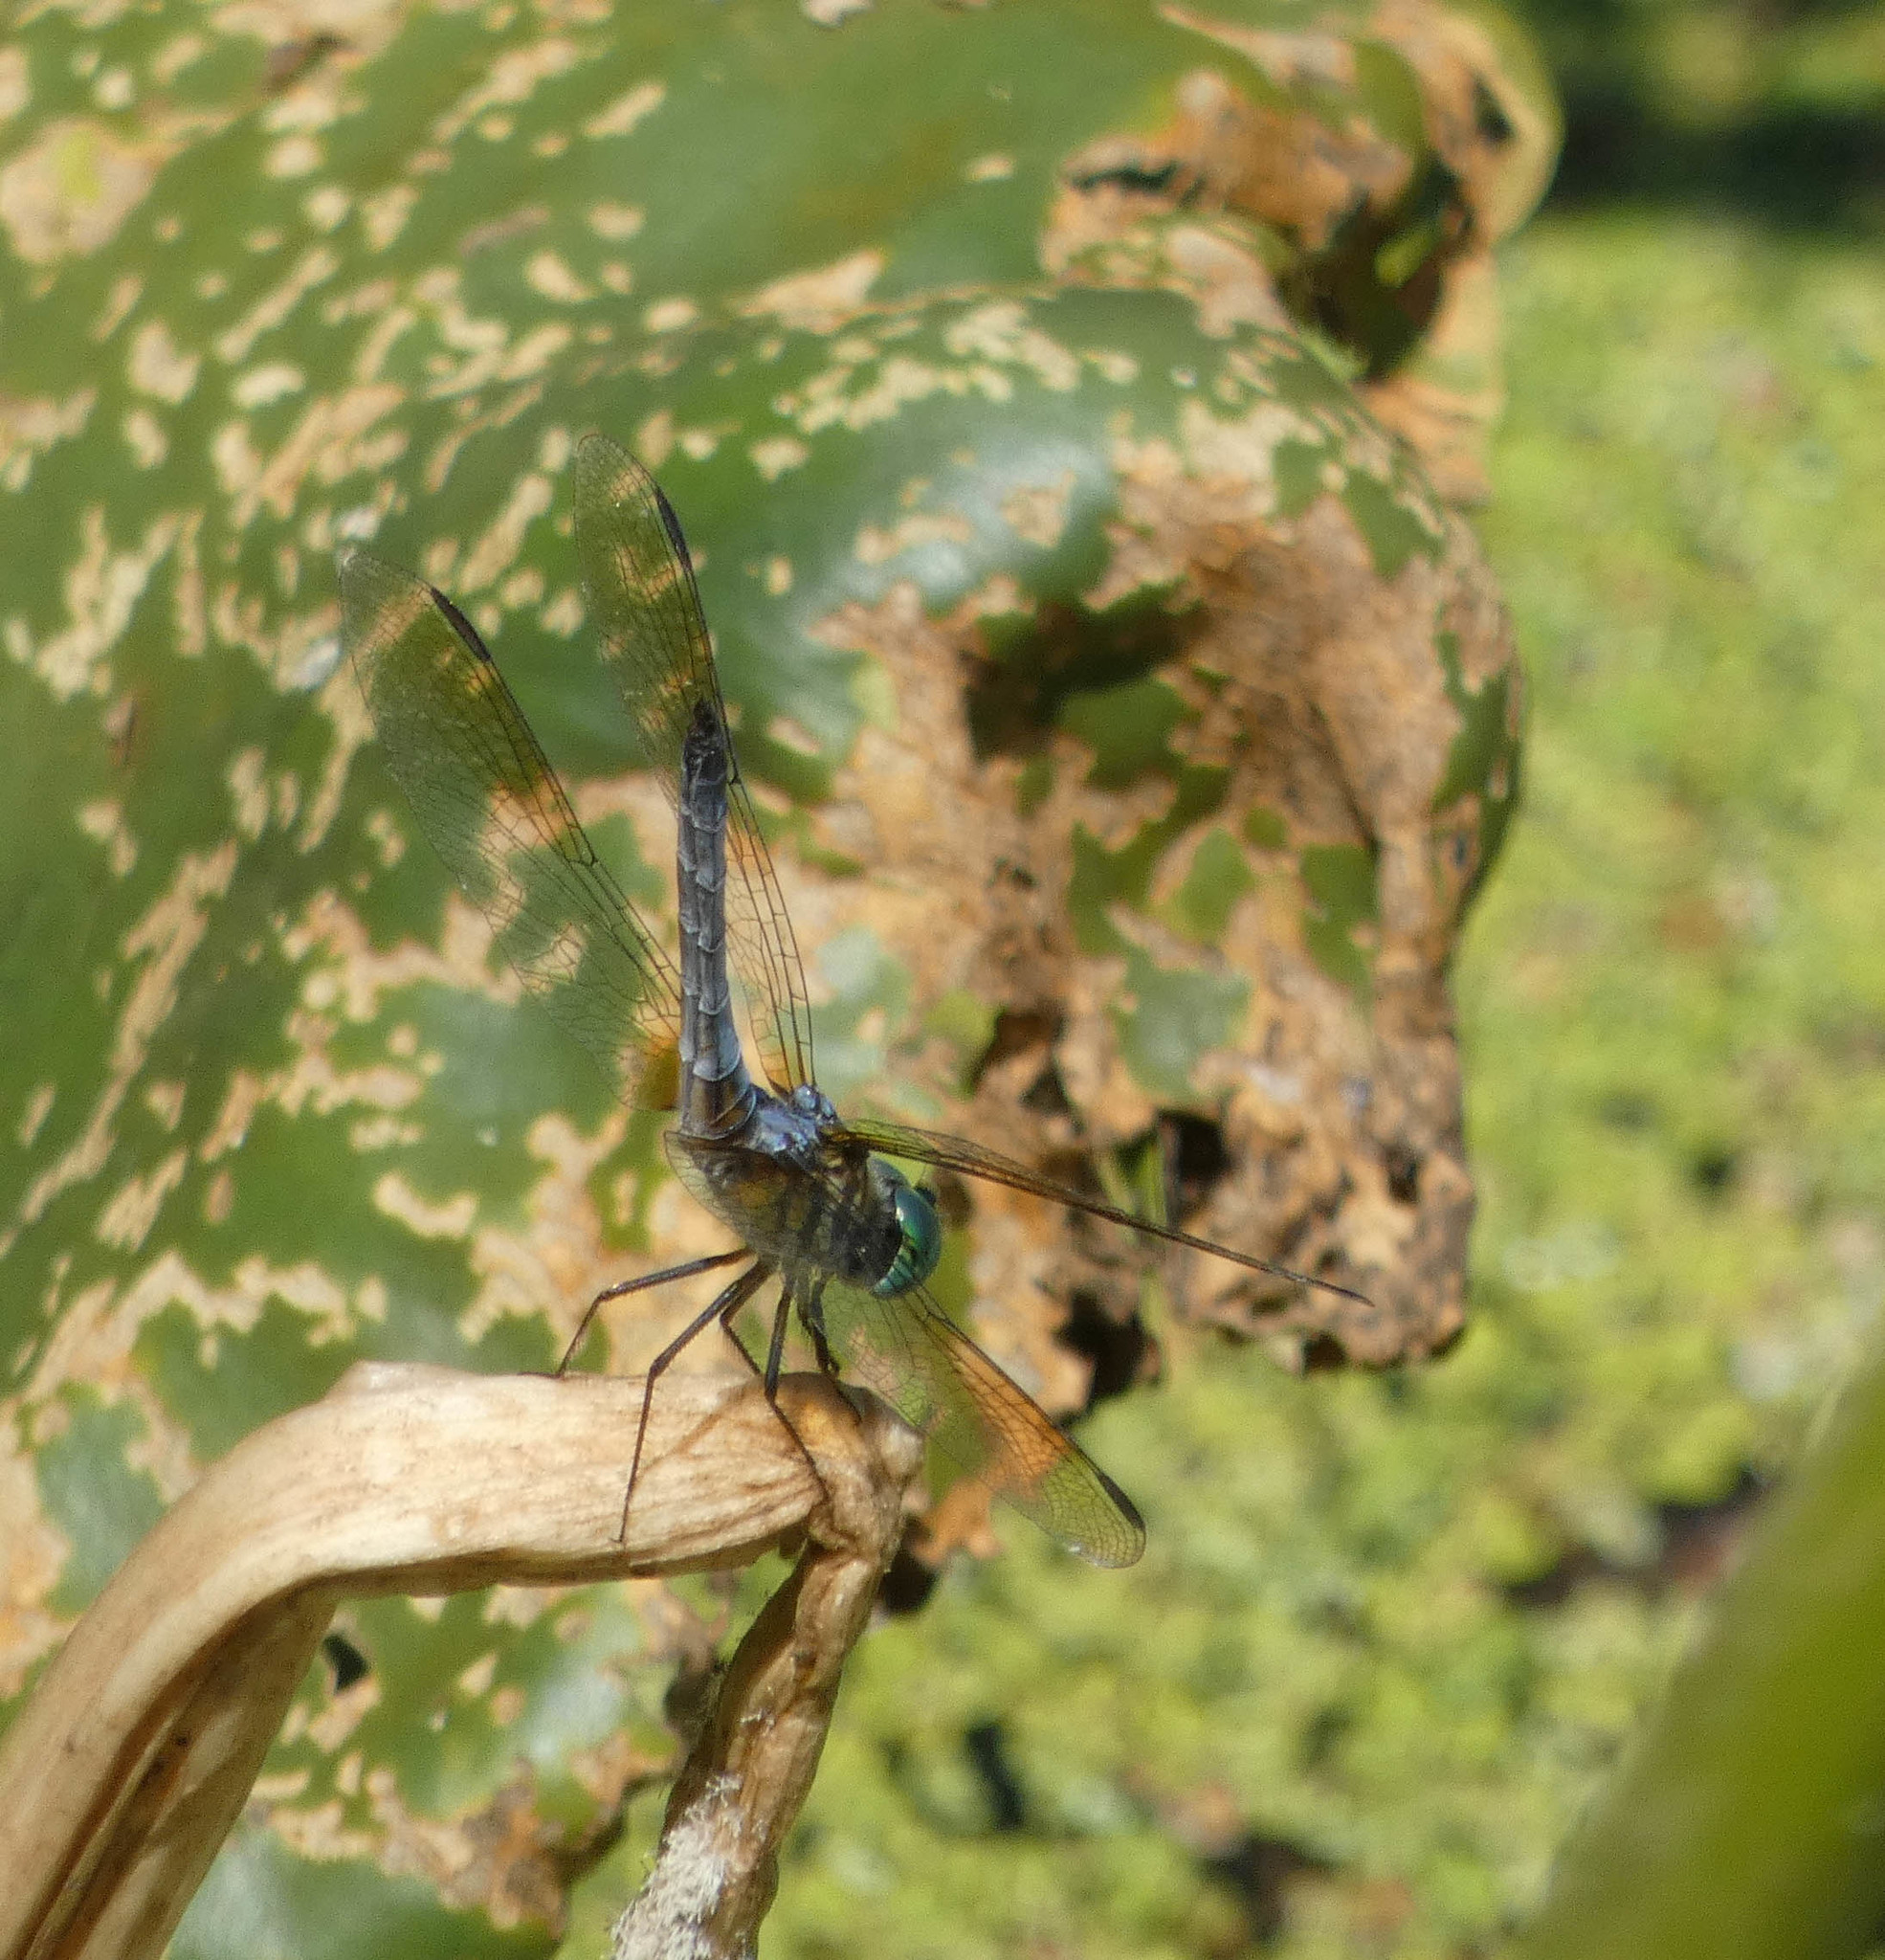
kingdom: Animalia
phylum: Arthropoda
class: Insecta
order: Odonata
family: Libellulidae
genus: Pachydiplax
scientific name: Pachydiplax longipennis
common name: Blue dasher
